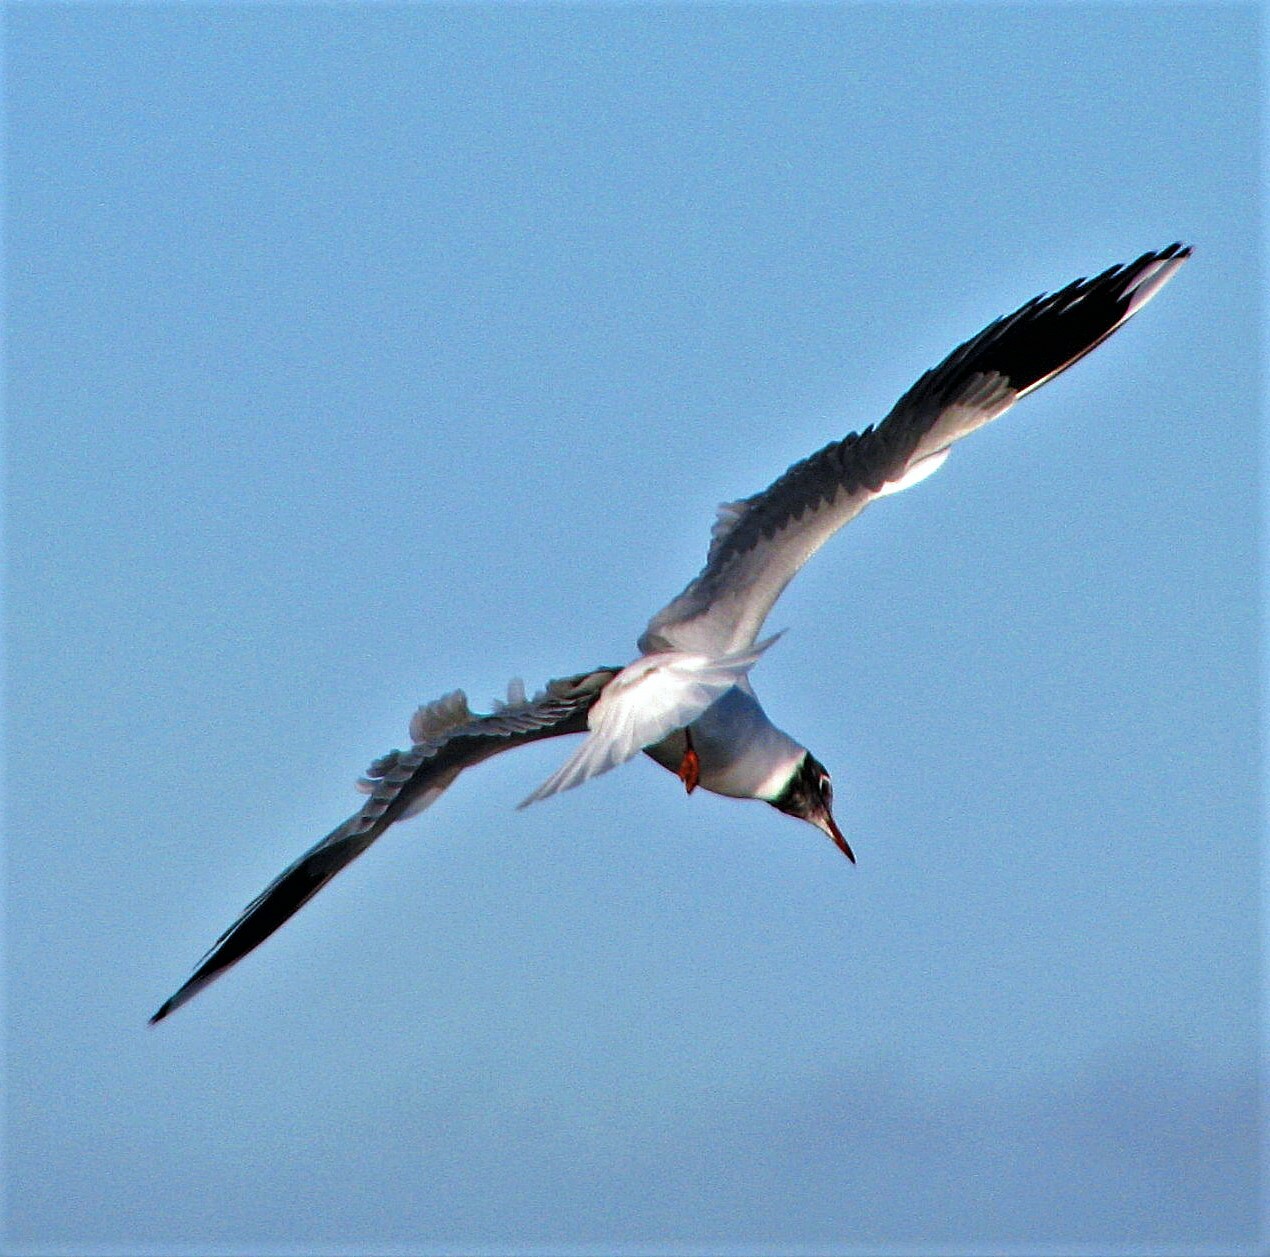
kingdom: Animalia
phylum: Chordata
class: Aves
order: Charadriiformes
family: Laridae
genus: Chroicocephalus
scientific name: Chroicocephalus maculipennis
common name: Brown-hooded gull
